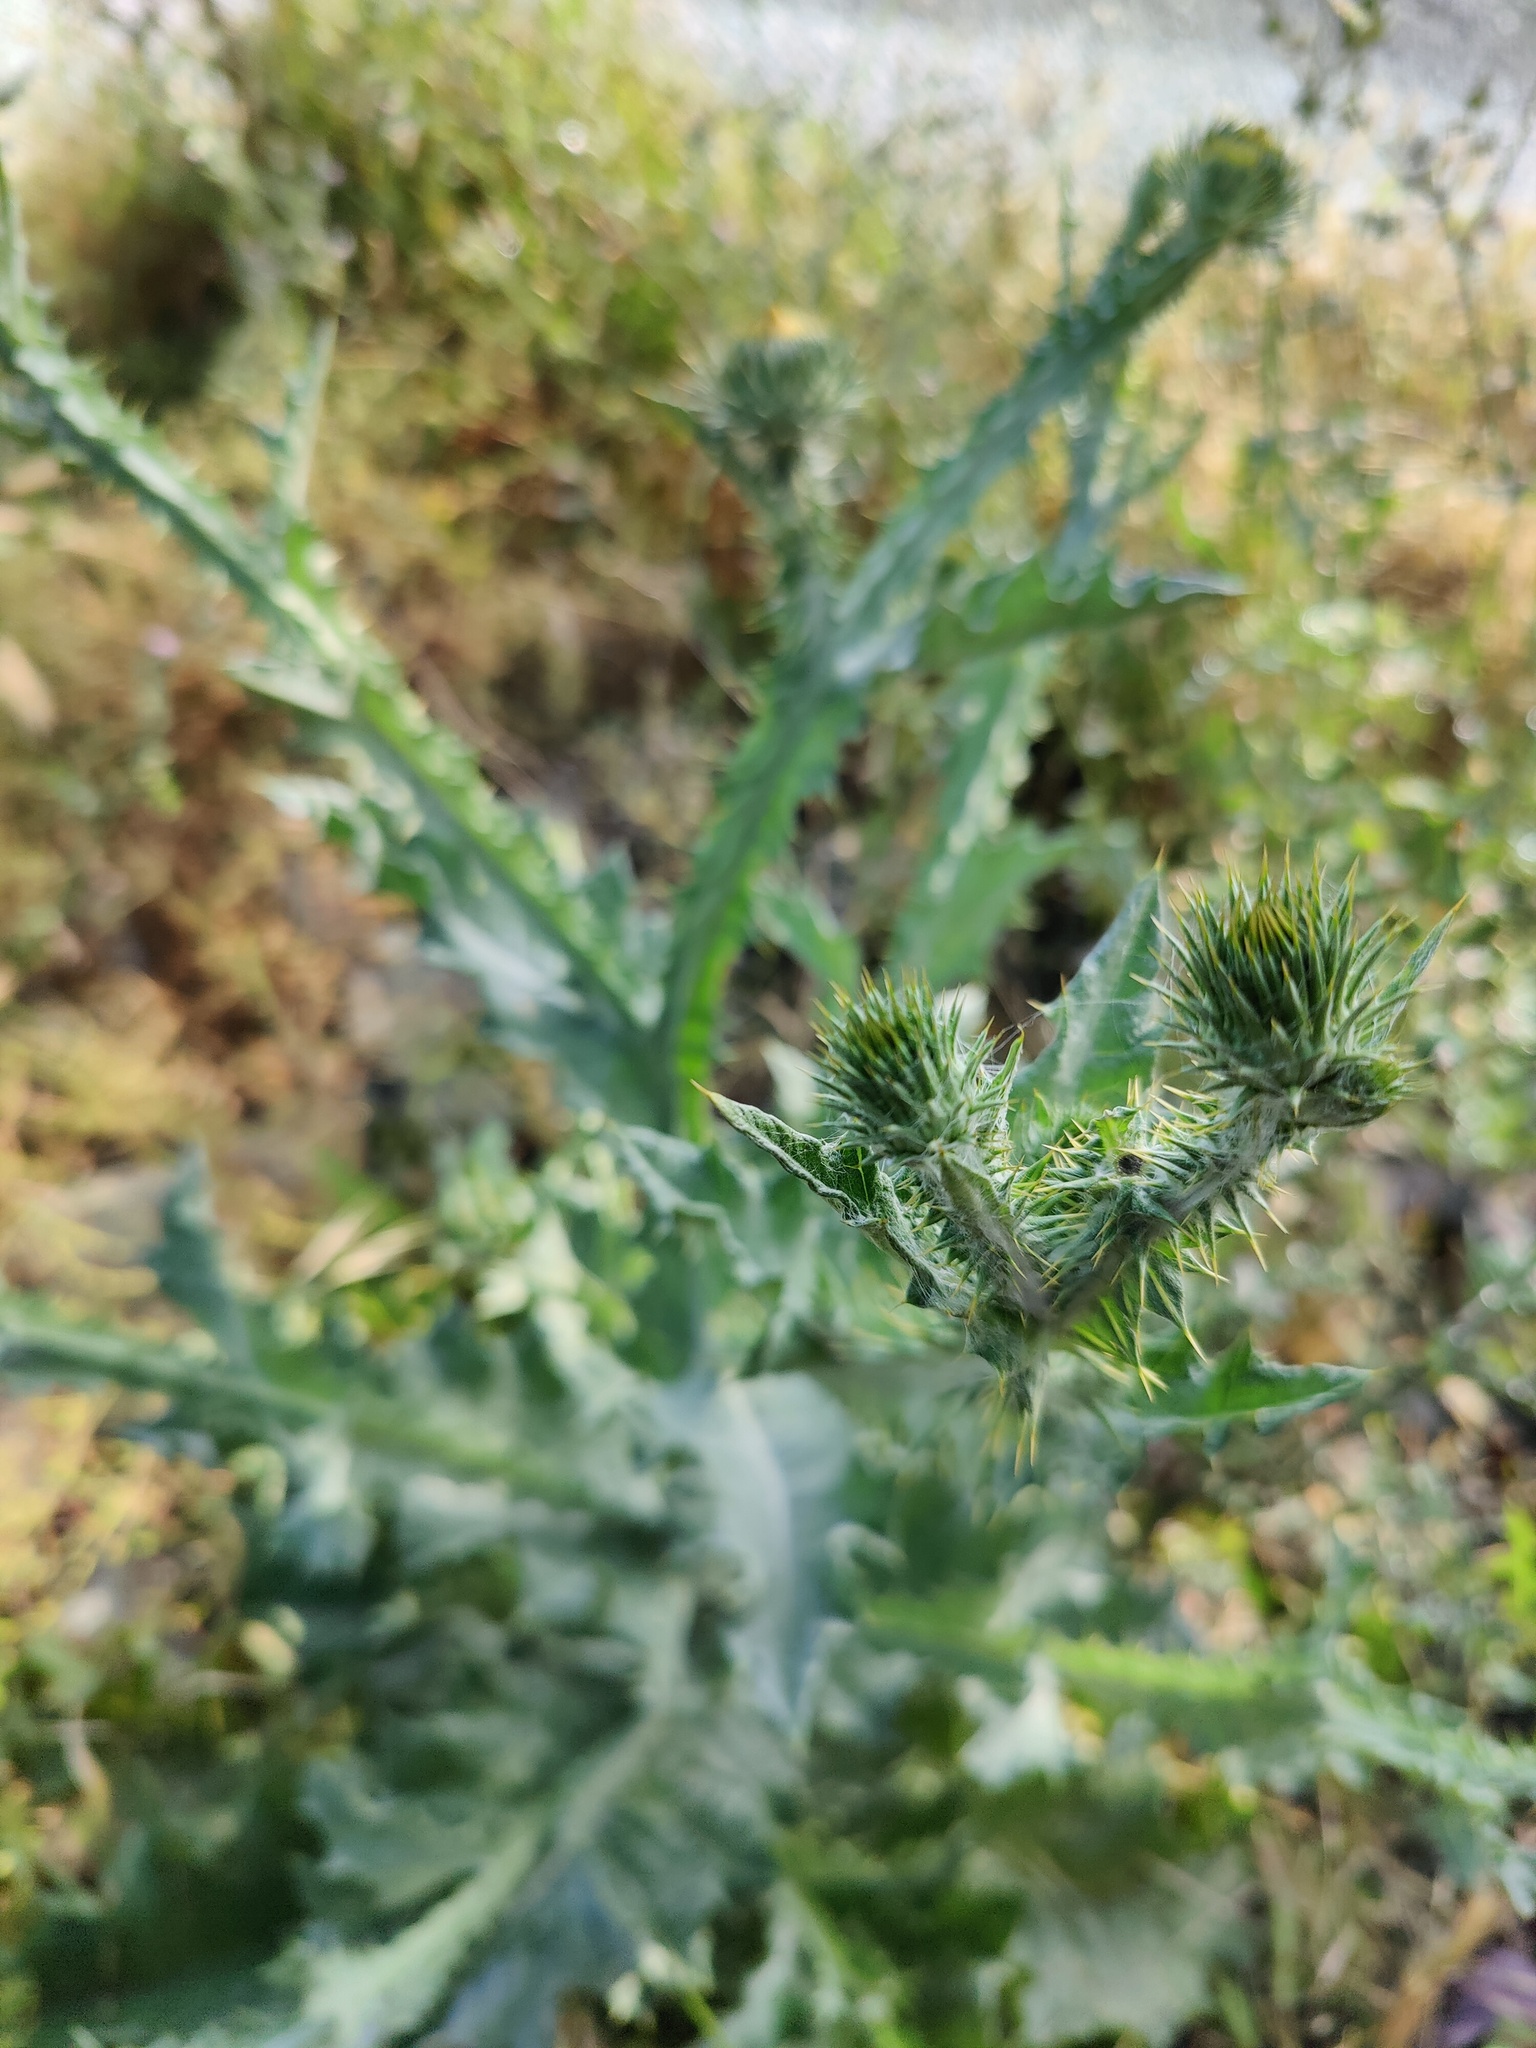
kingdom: Plantae
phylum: Tracheophyta
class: Magnoliopsida
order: Asterales
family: Asteraceae
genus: Onopordum
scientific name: Onopordum acanthium
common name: Scotch thistle
